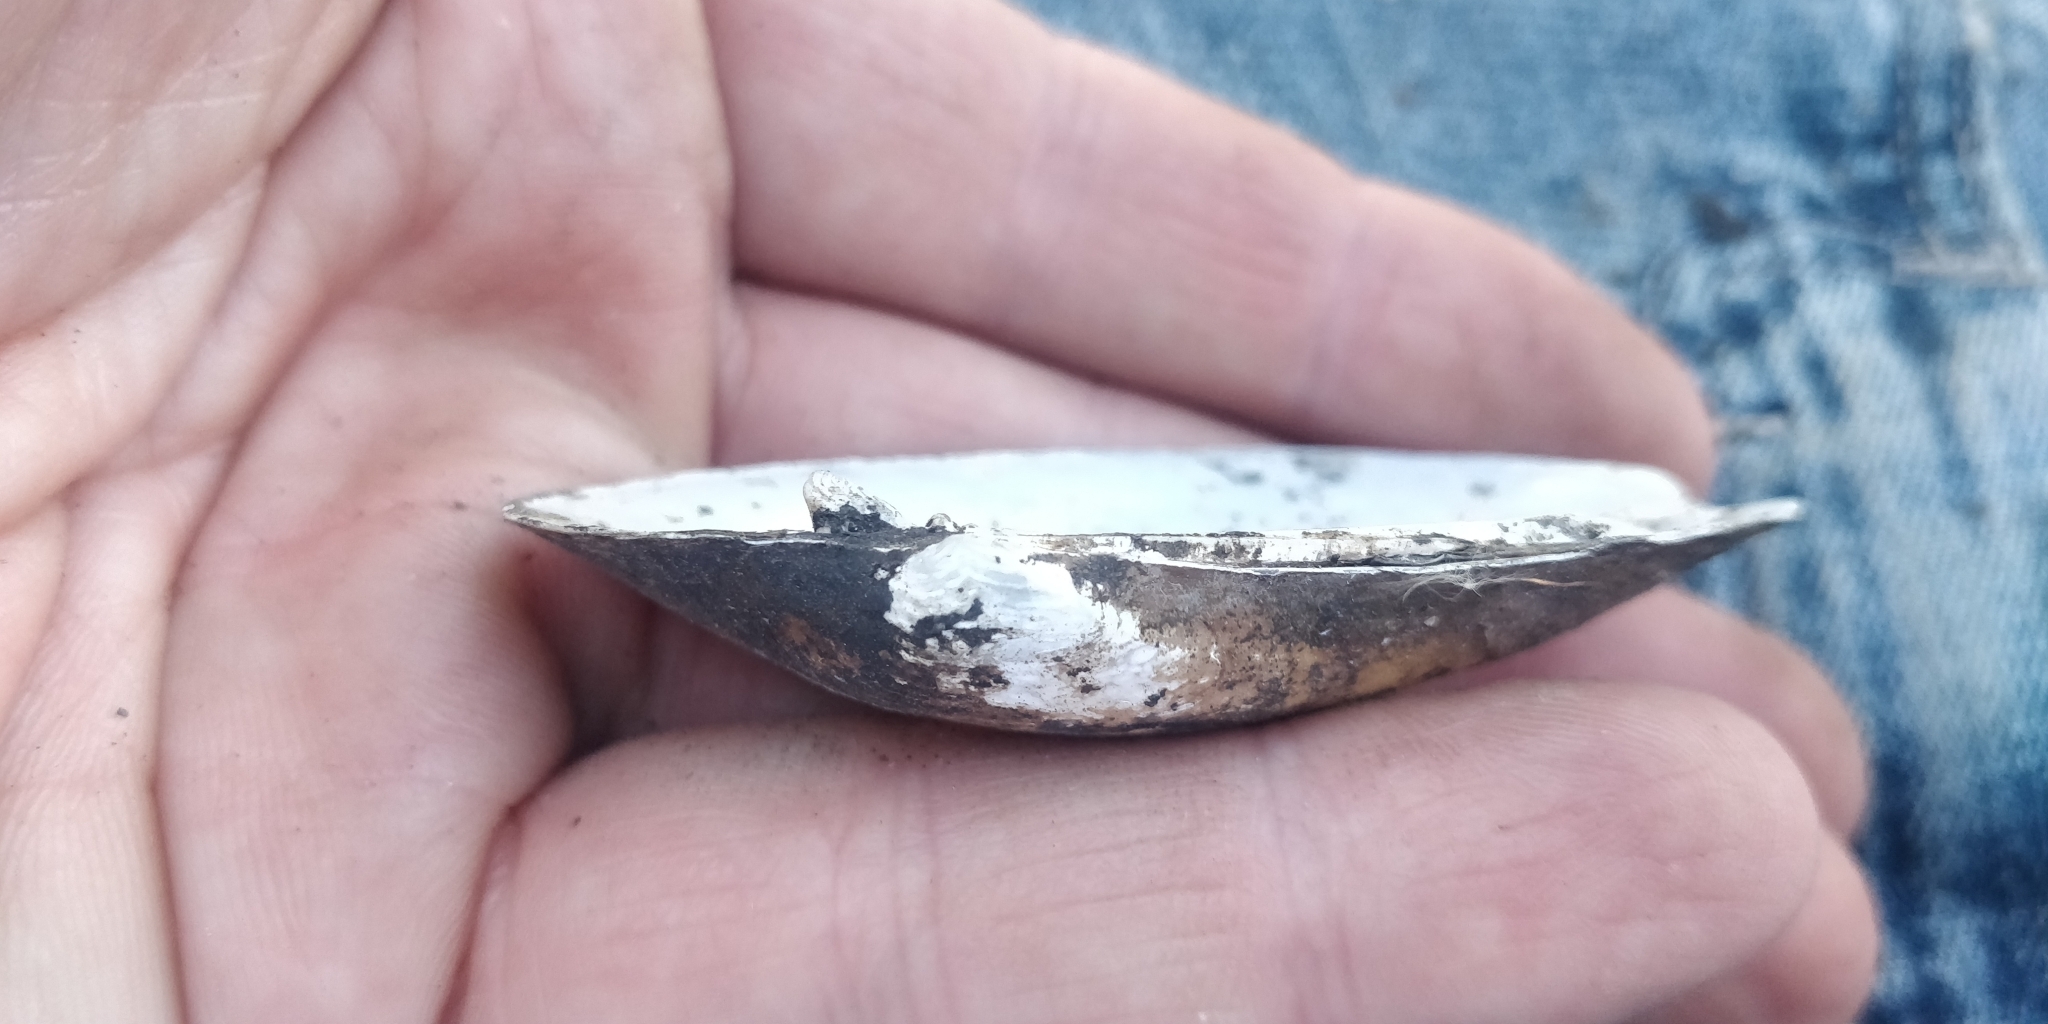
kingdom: Animalia
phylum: Mollusca
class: Bivalvia
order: Unionida
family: Unionidae
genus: Lampsilis
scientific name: Lampsilis siliquoidea
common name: Fatmucket
